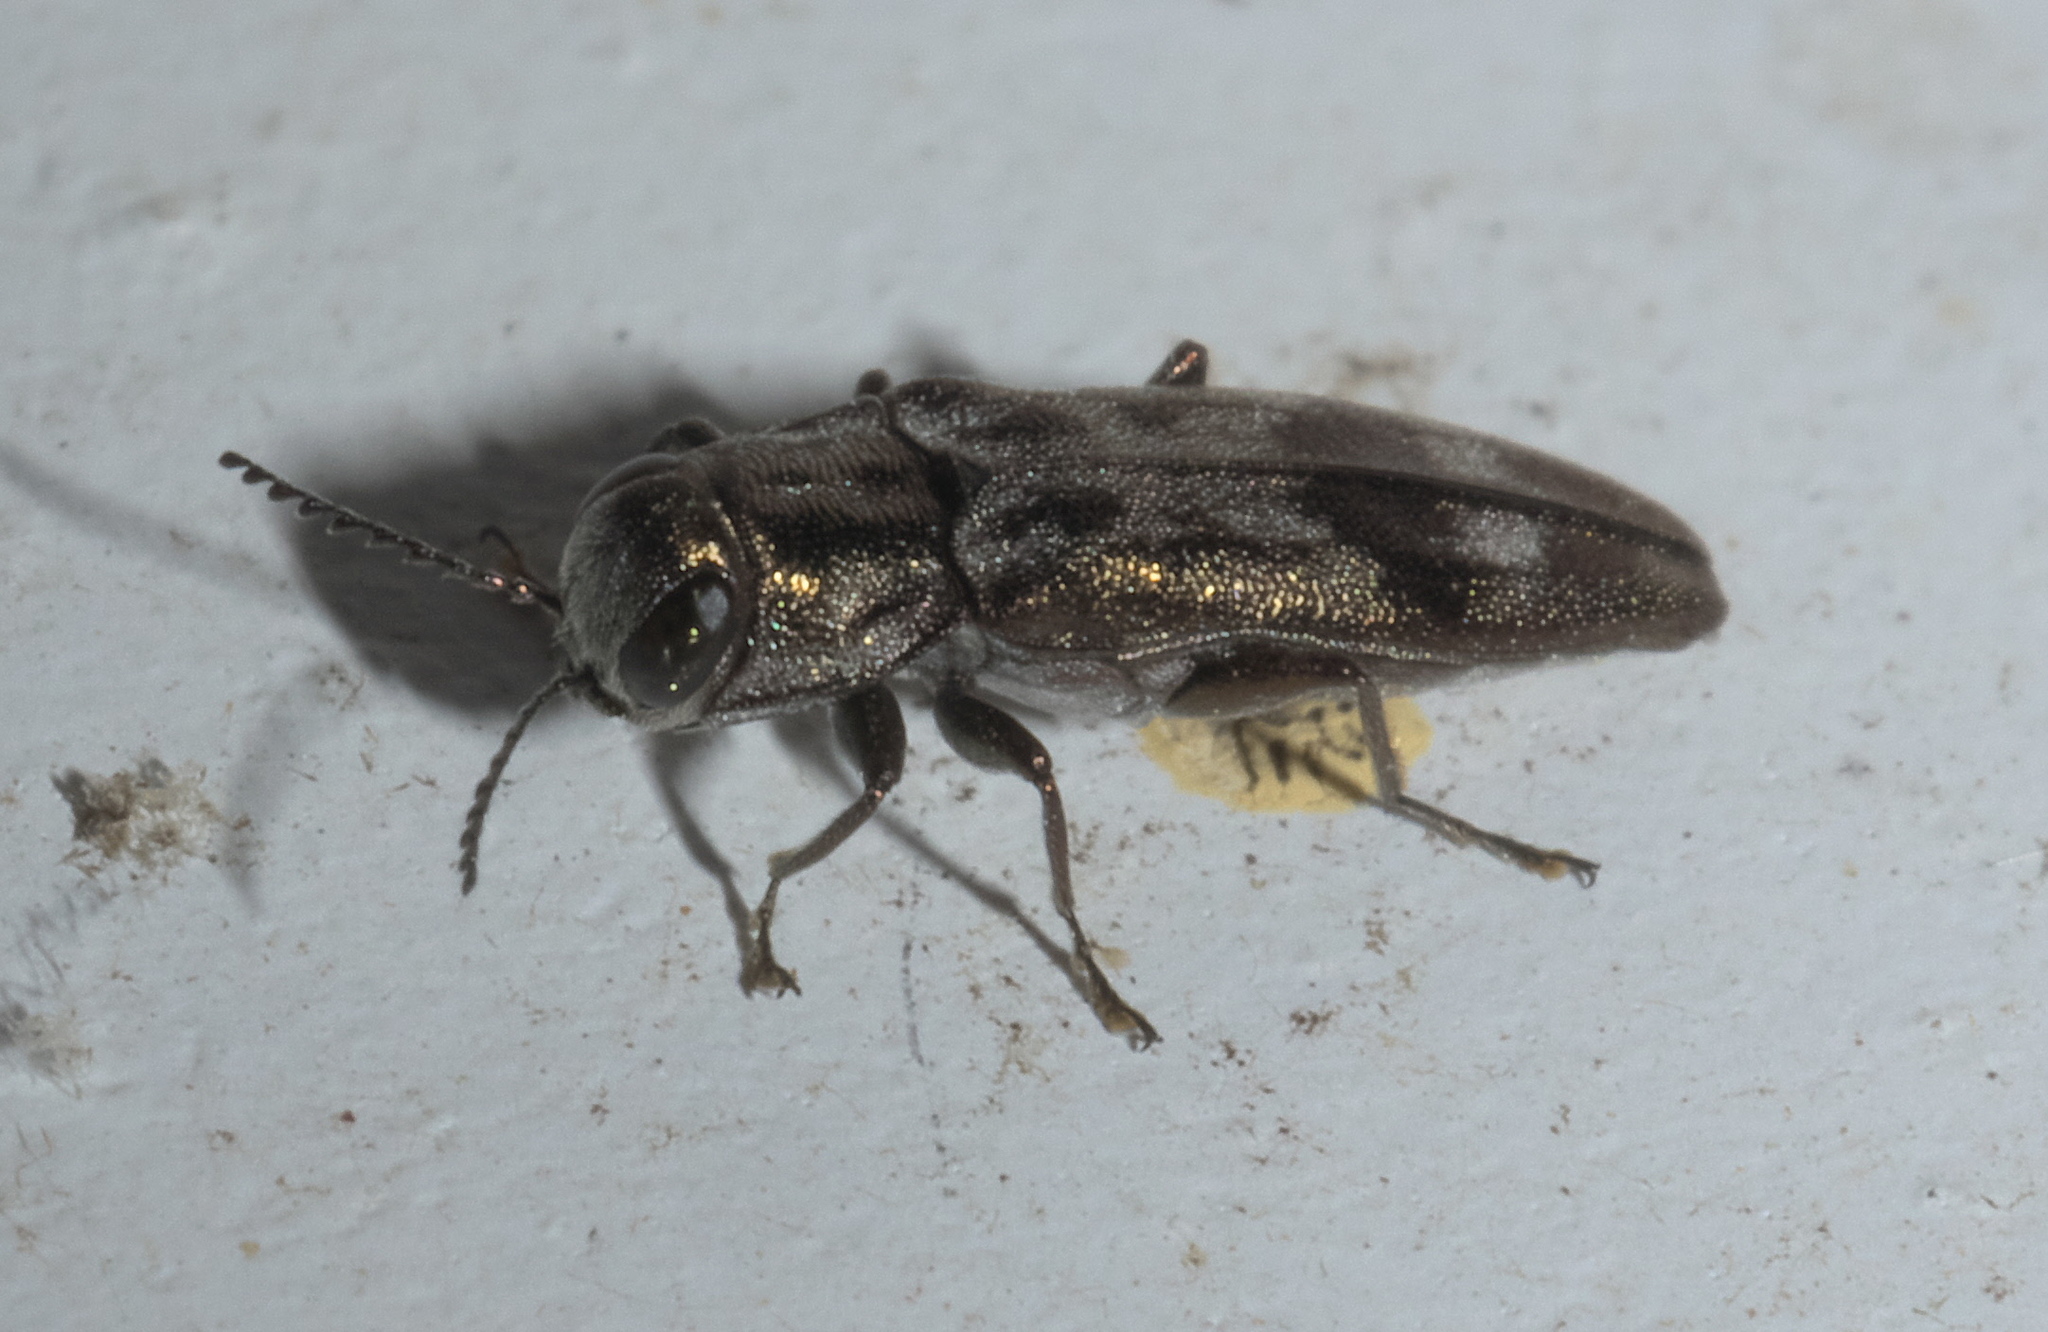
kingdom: Animalia
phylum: Arthropoda
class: Insecta
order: Coleoptera
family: Buprestidae
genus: Agrilus
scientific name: Agrilus lecontei
